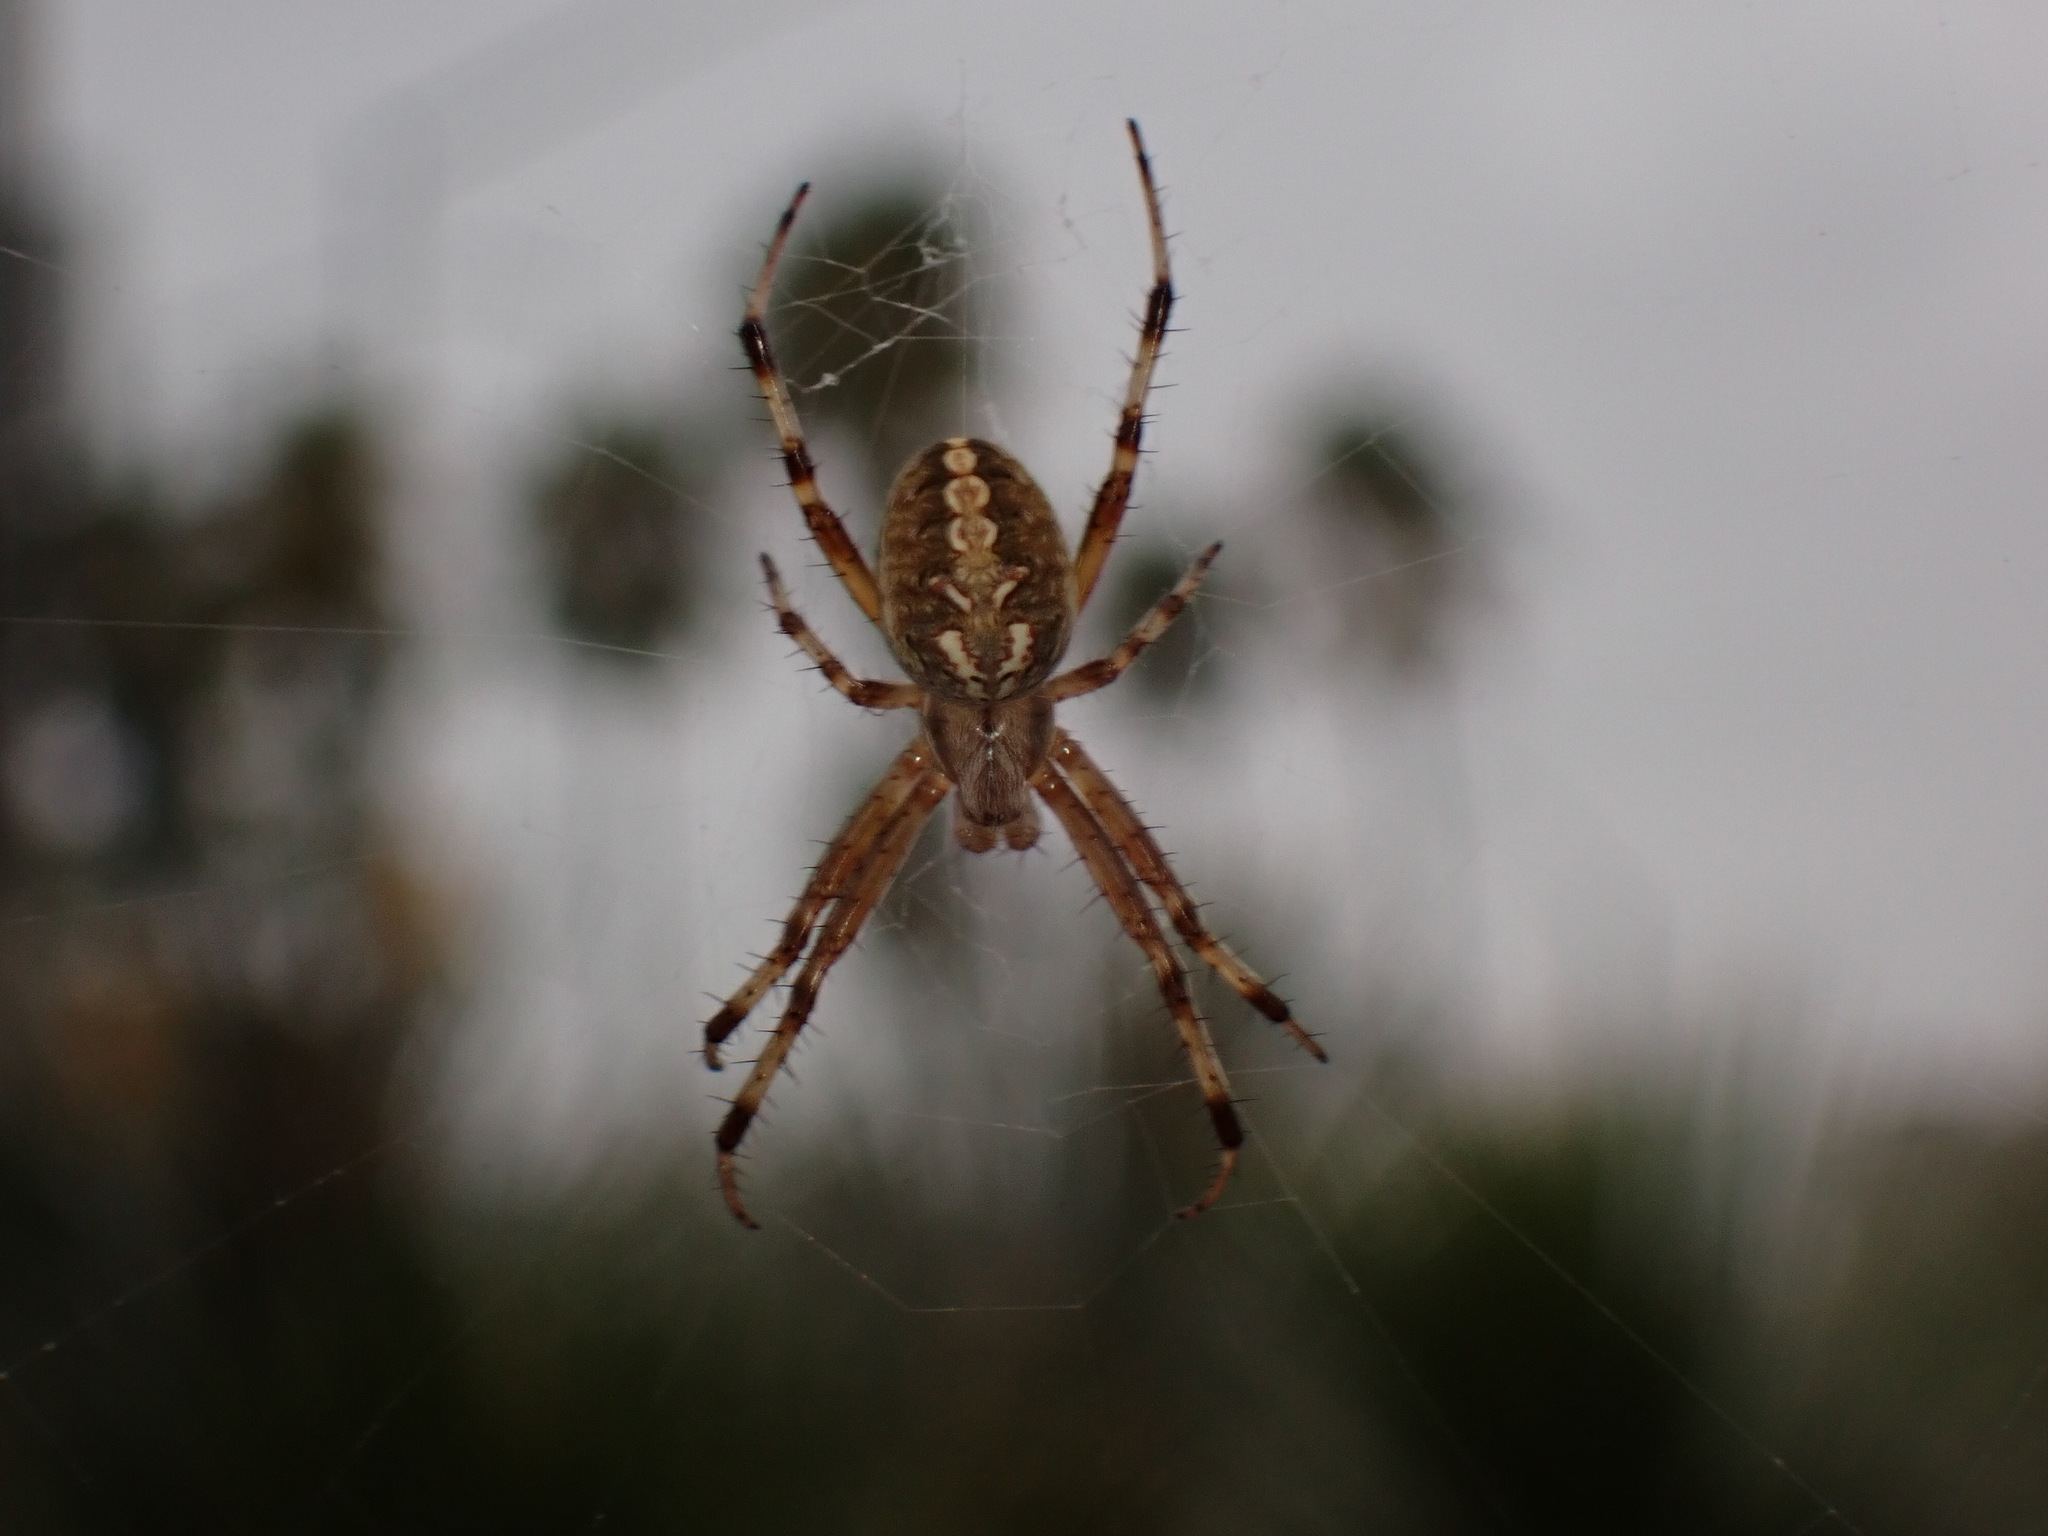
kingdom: Animalia
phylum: Arthropoda
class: Arachnida
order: Araneae
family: Araneidae
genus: Neoscona
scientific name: Neoscona oaxacensis
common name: Orb weavers
